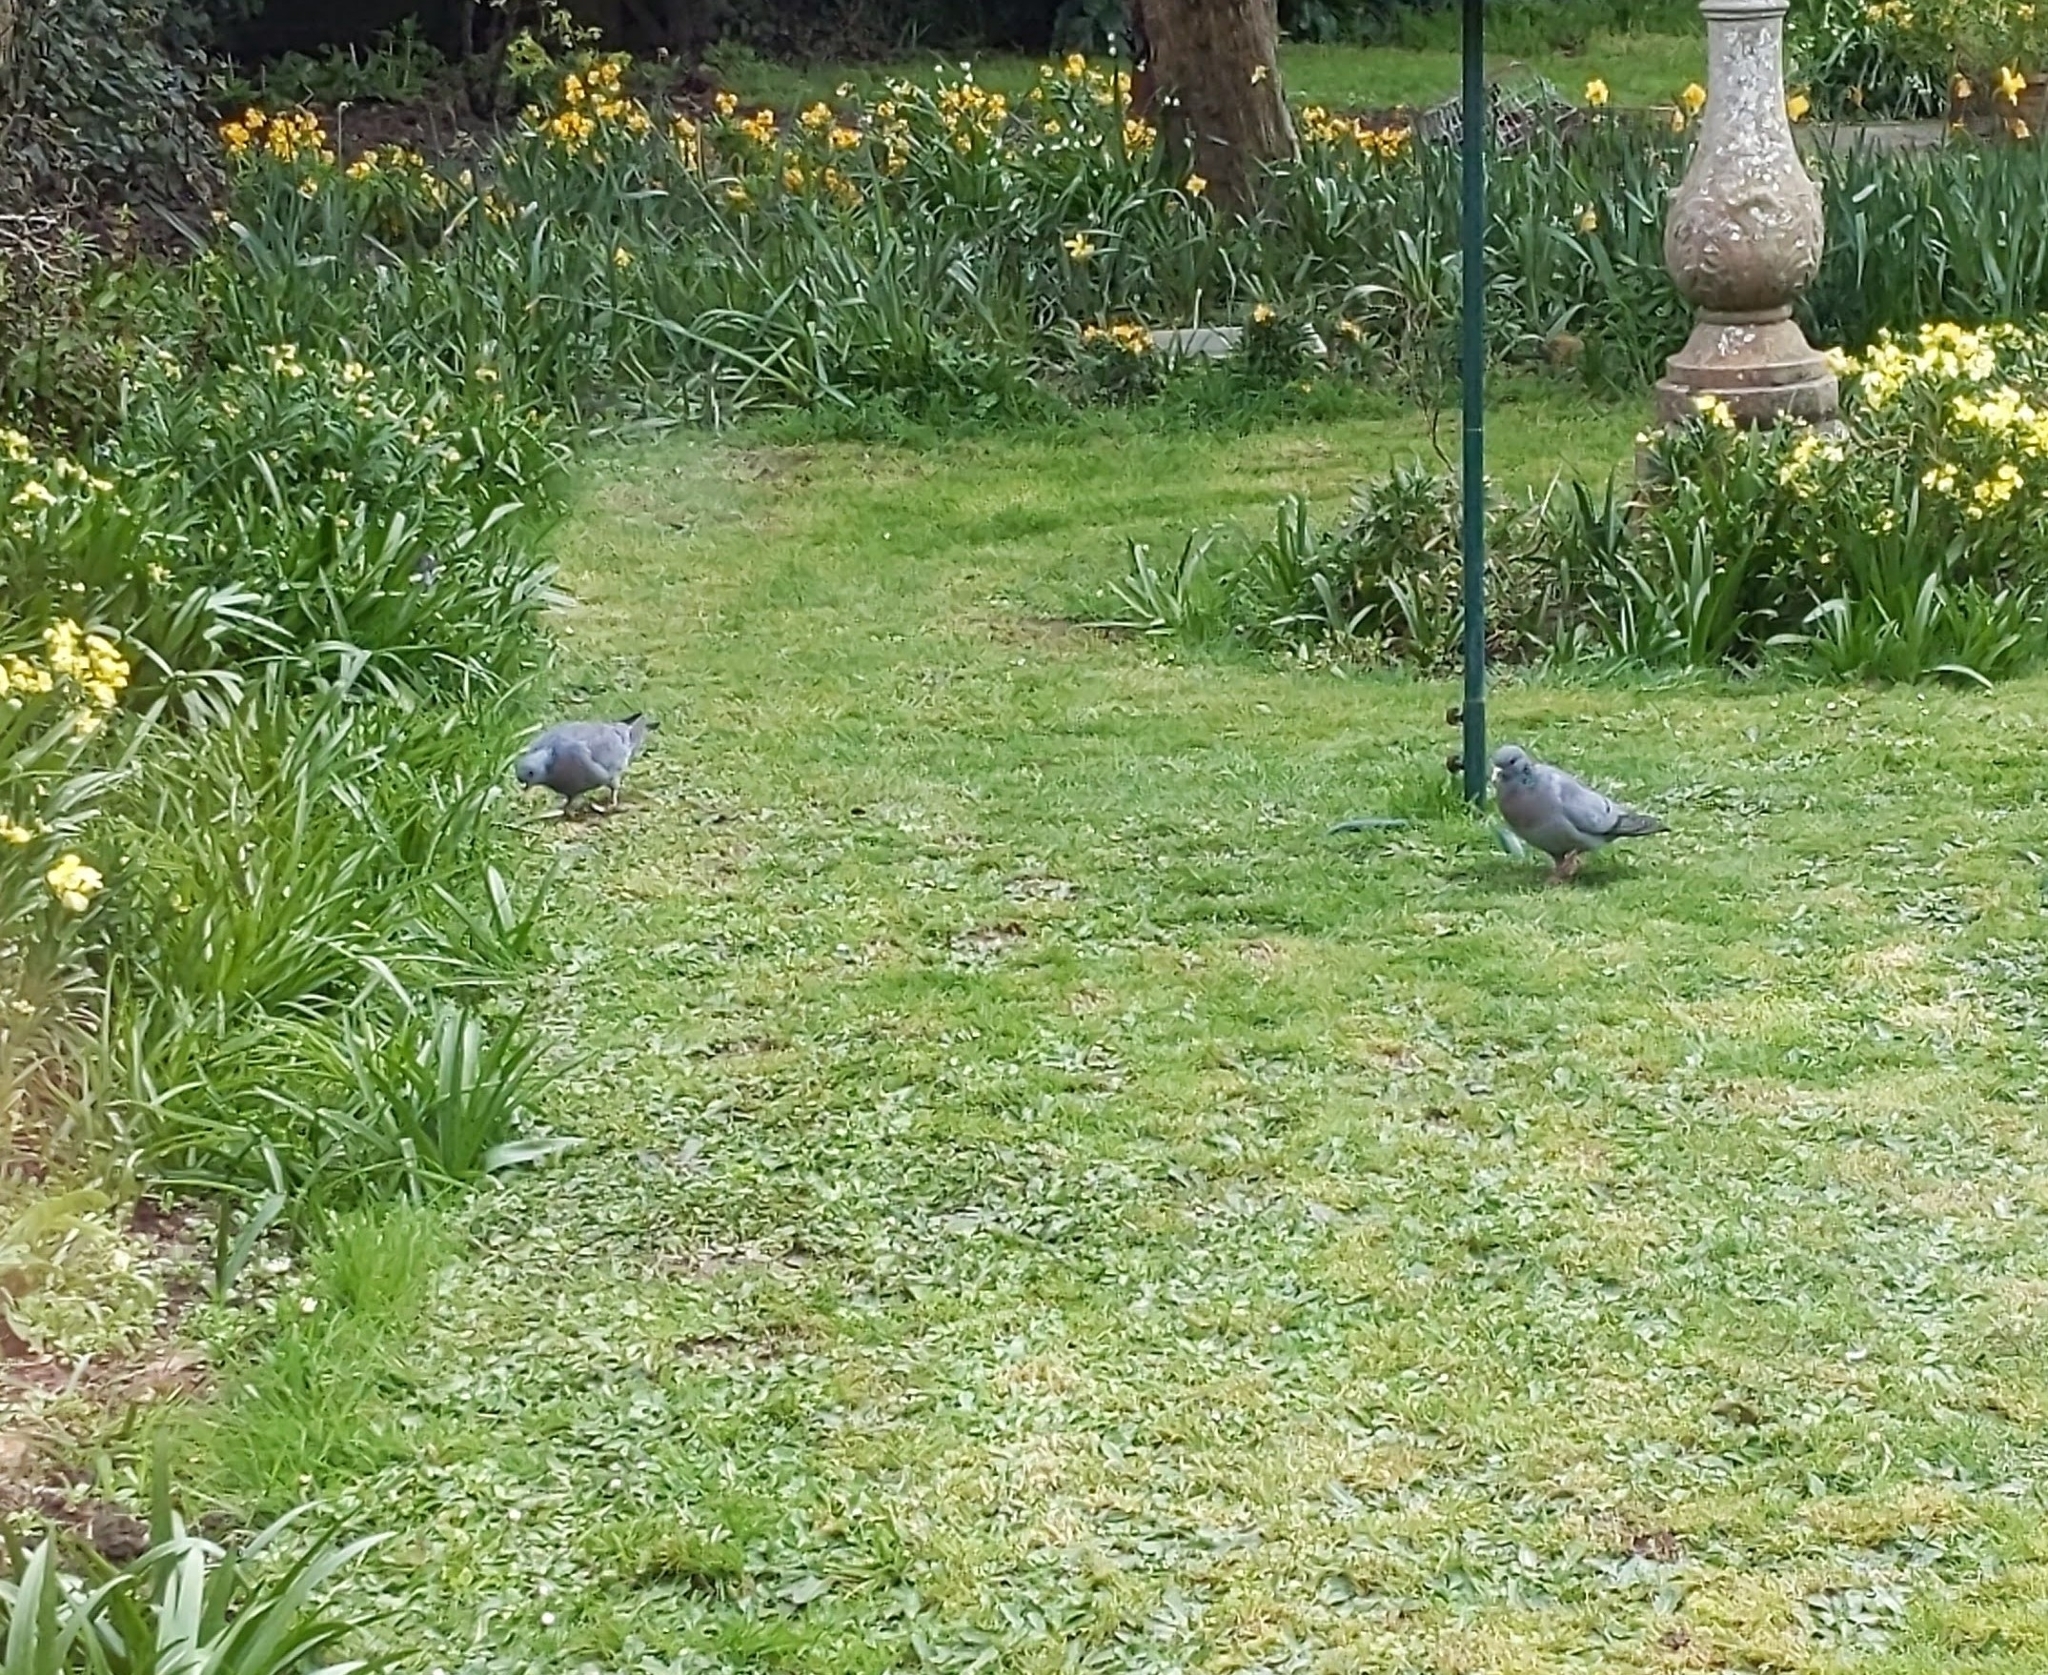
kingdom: Animalia
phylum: Chordata
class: Aves
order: Columbiformes
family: Columbidae
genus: Columba
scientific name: Columba oenas
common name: Stock dove
